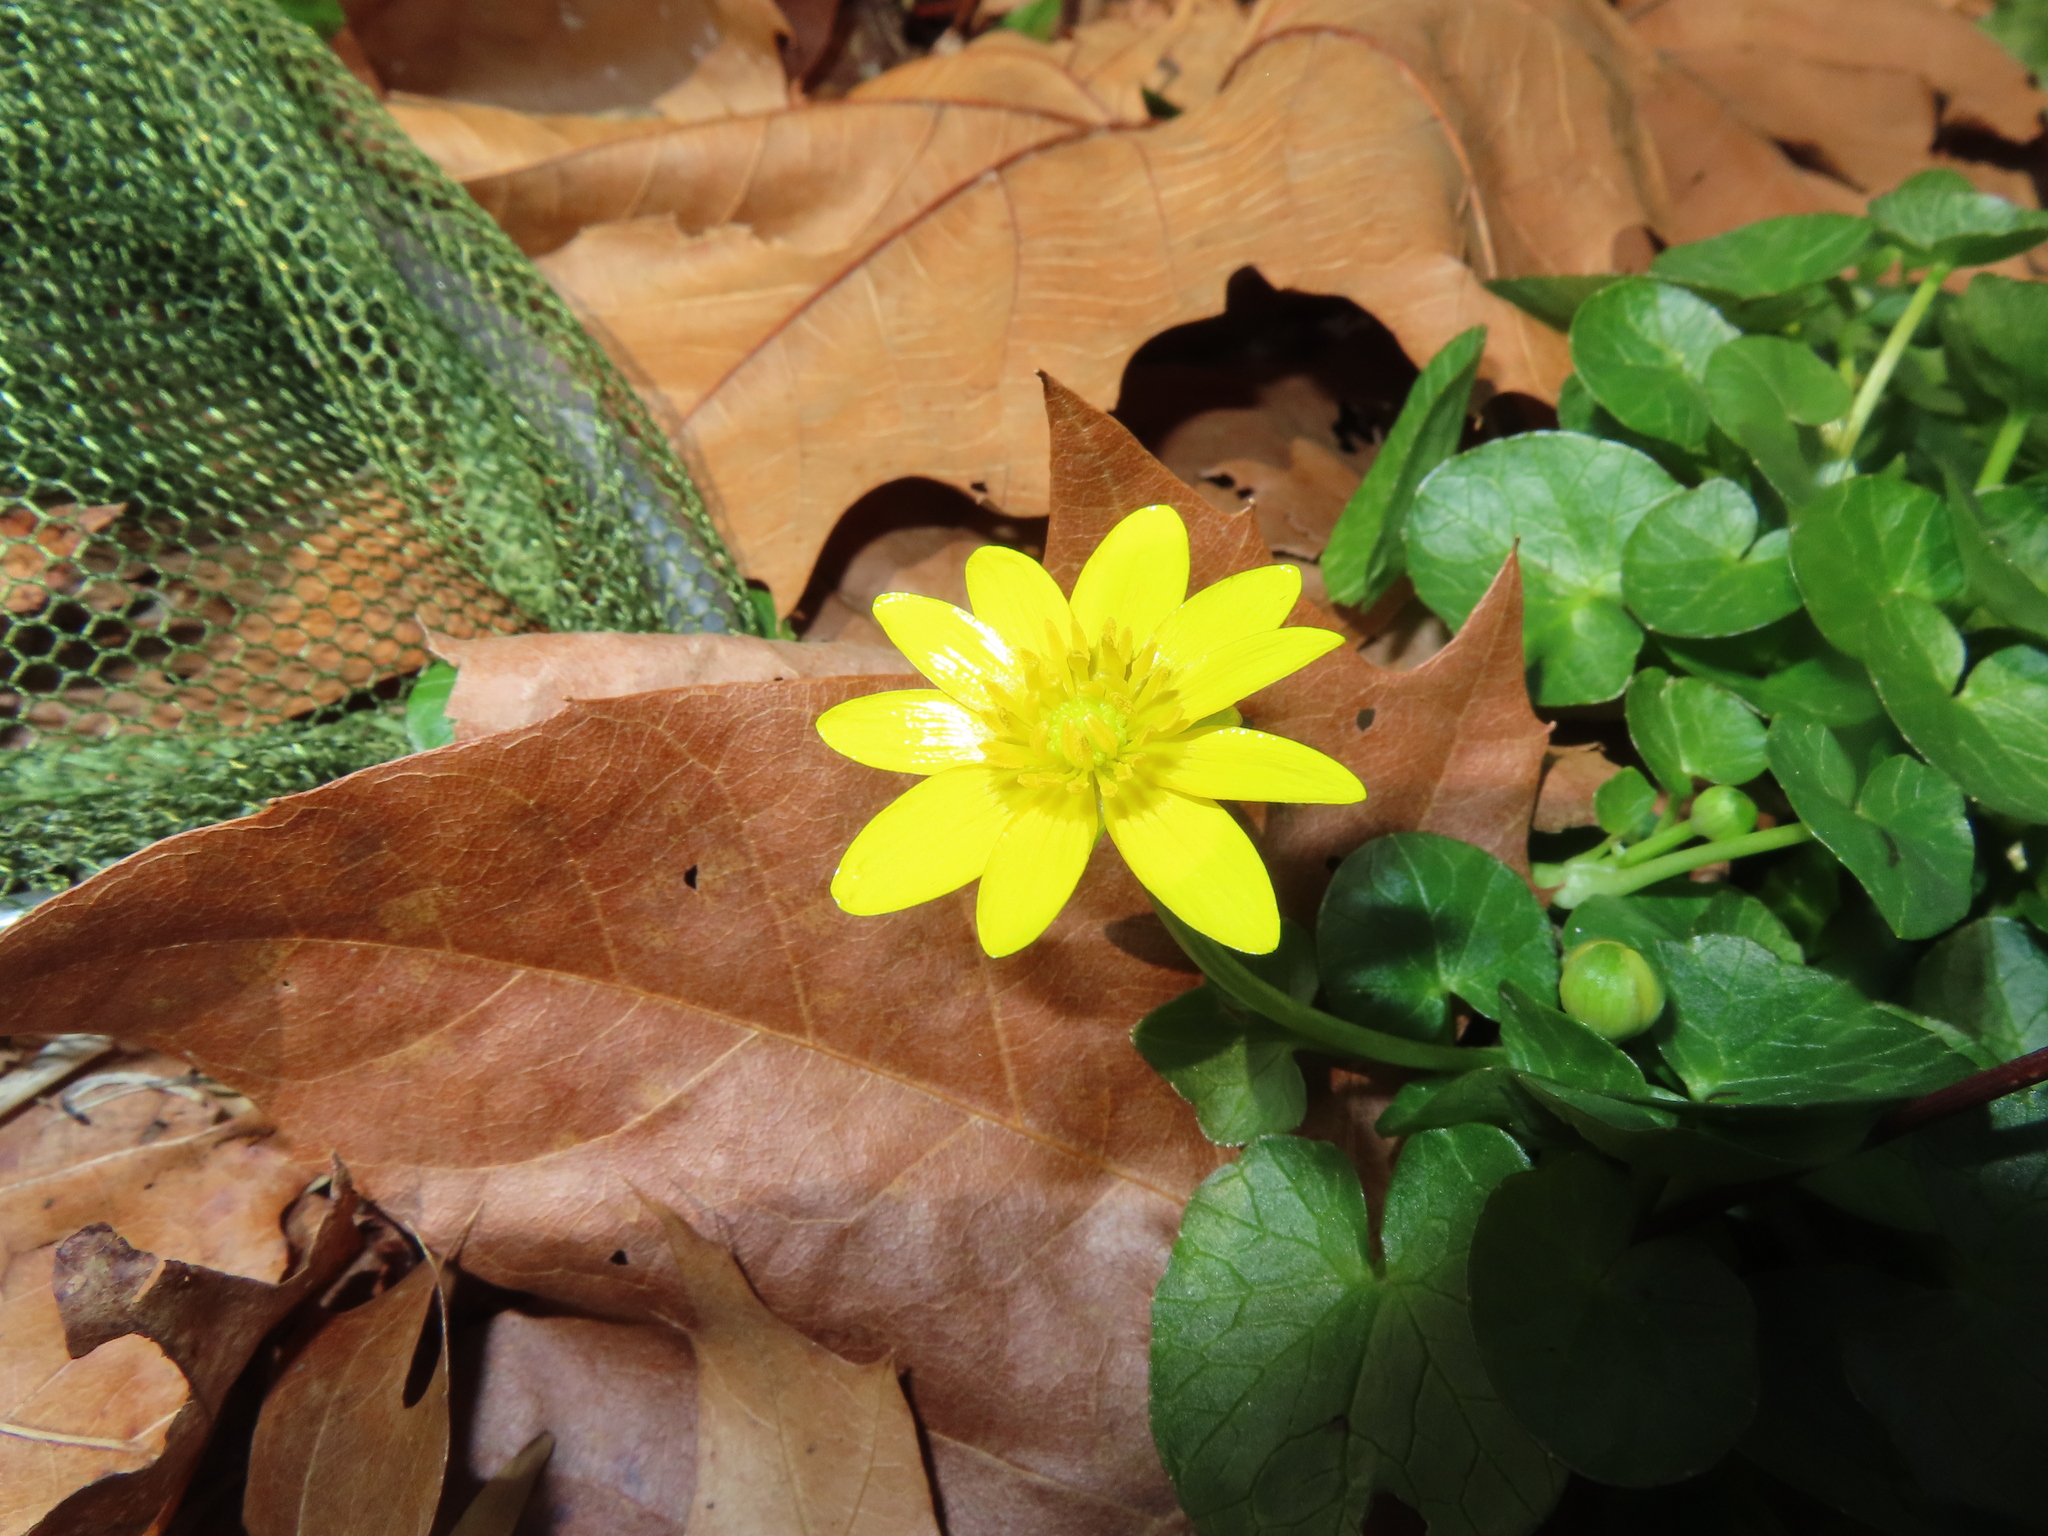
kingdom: Plantae
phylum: Tracheophyta
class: Magnoliopsida
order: Ranunculales
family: Ranunculaceae
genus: Ficaria
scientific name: Ficaria verna
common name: Lesser celandine
